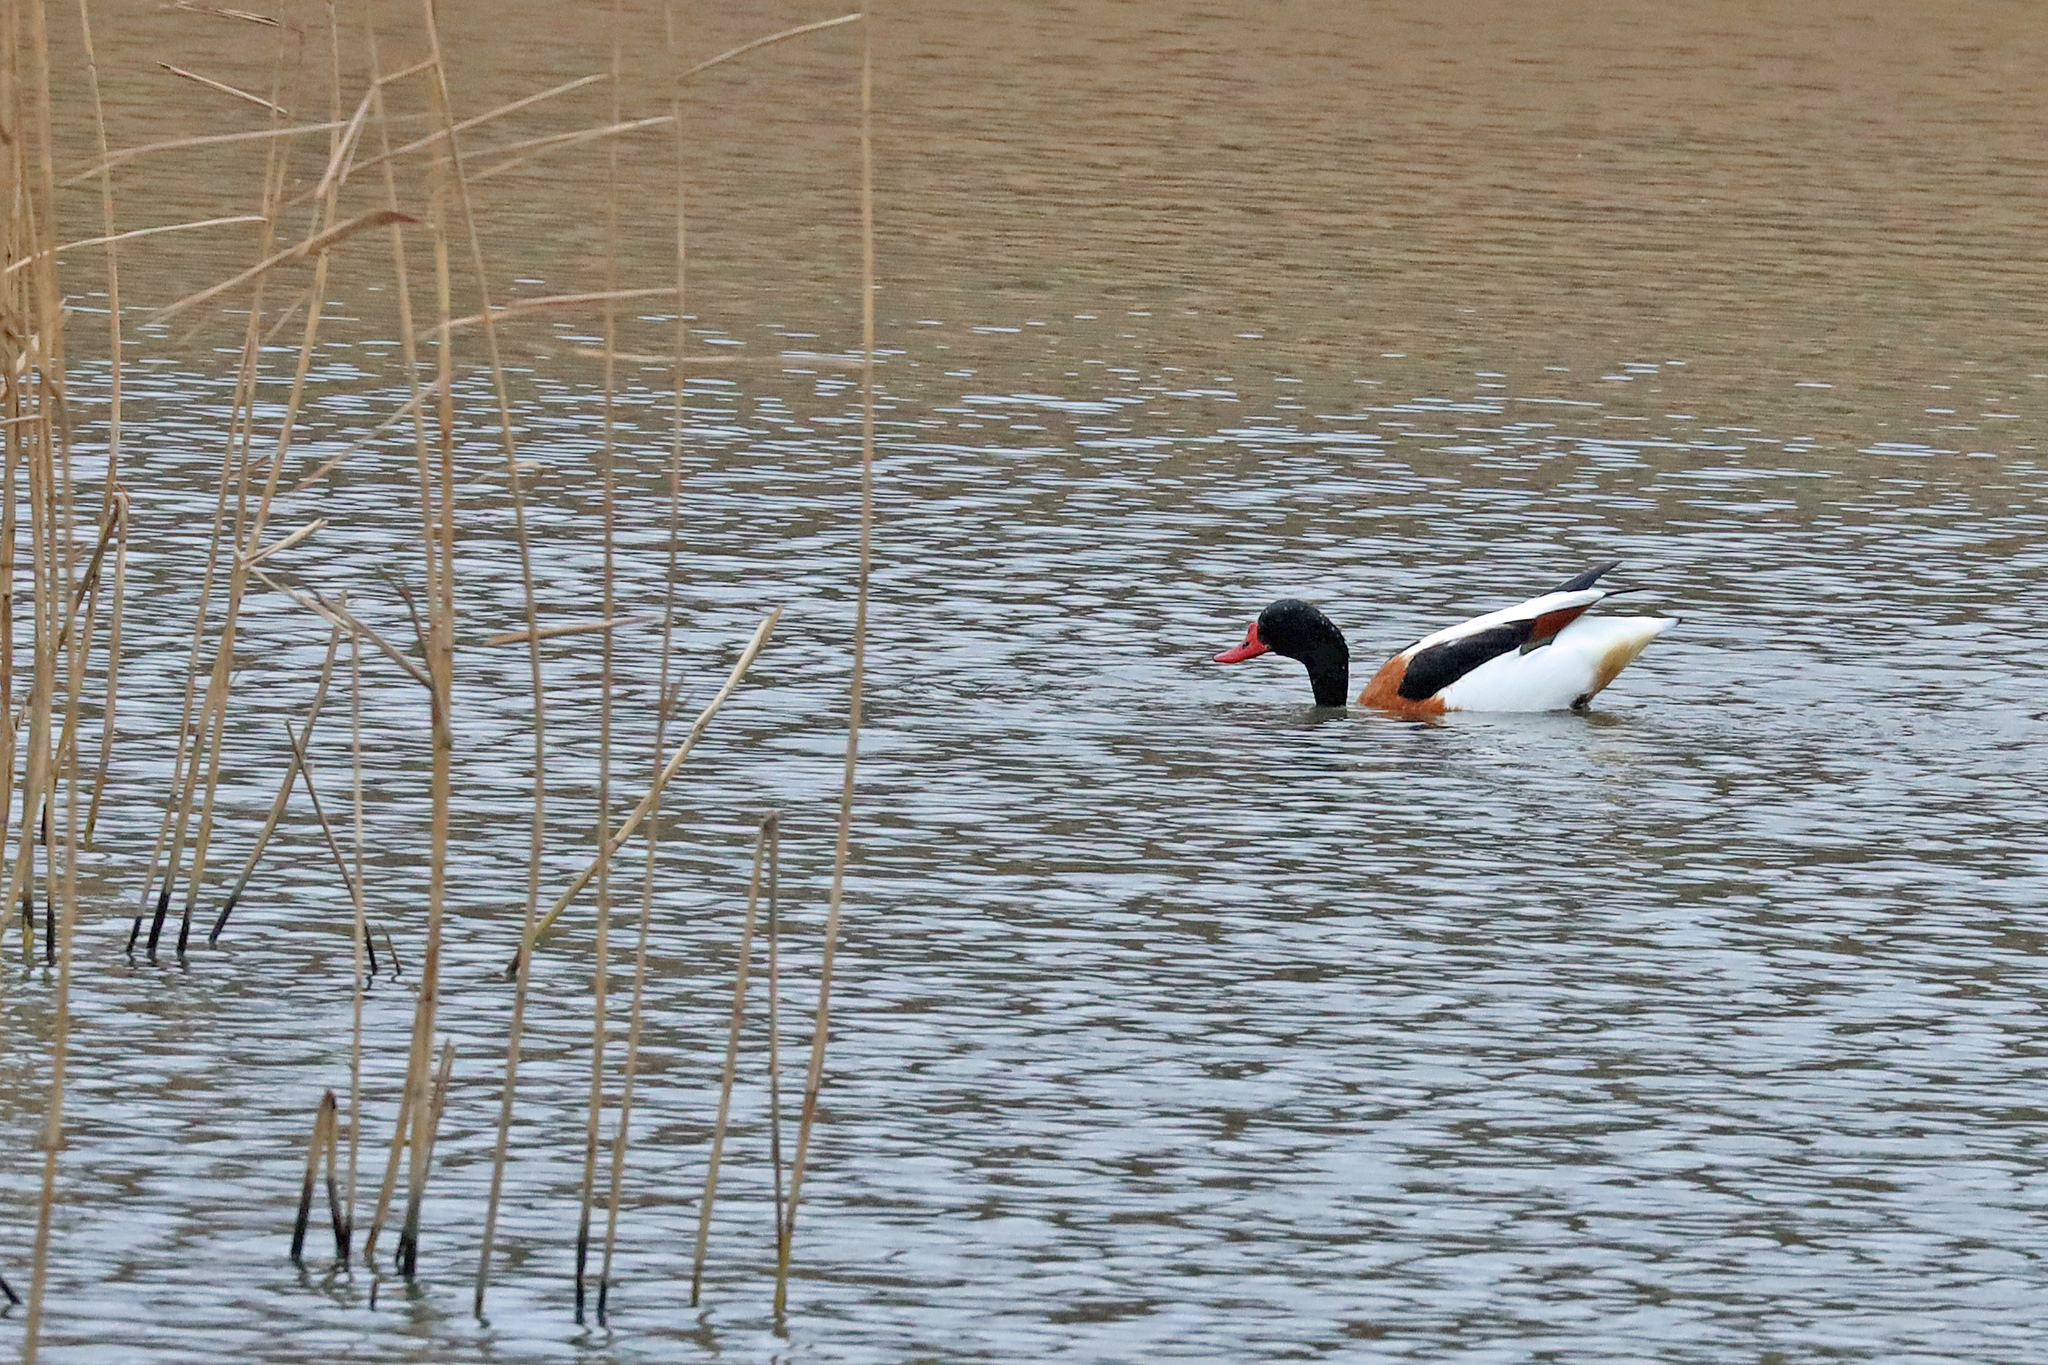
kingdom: Animalia
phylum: Chordata
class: Aves
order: Anseriformes
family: Anatidae
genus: Tadorna
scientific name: Tadorna tadorna
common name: Common shelduck
